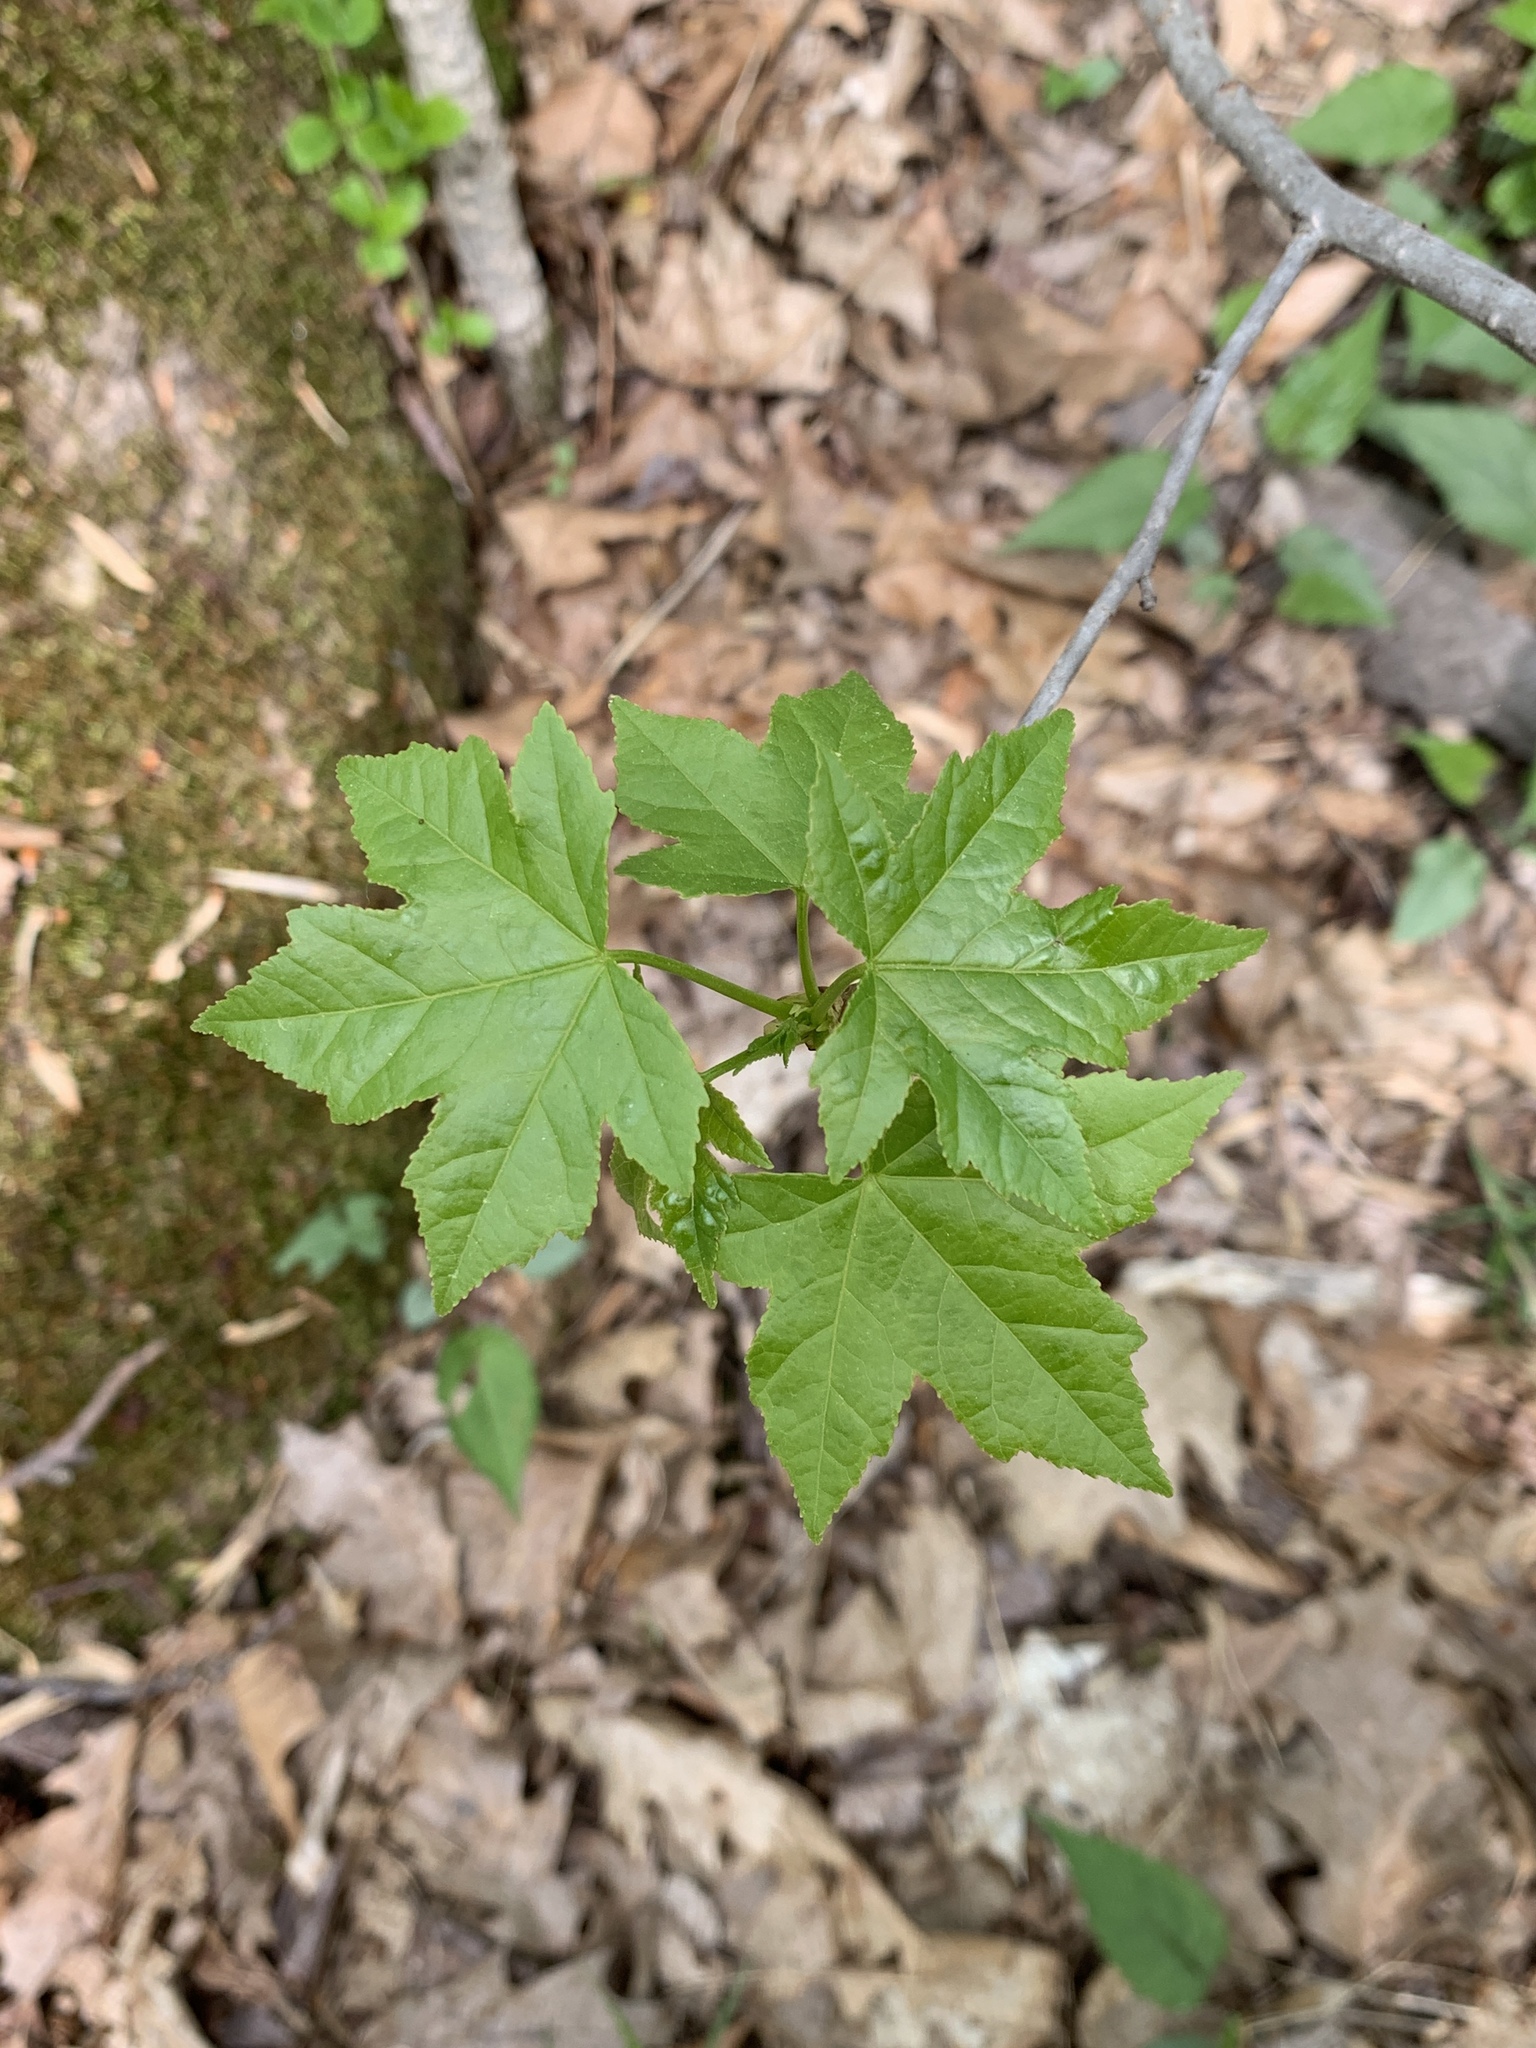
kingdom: Plantae
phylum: Tracheophyta
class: Magnoliopsida
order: Saxifragales
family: Altingiaceae
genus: Liquidambar
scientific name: Liquidambar styraciflua
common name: Sweet gum
